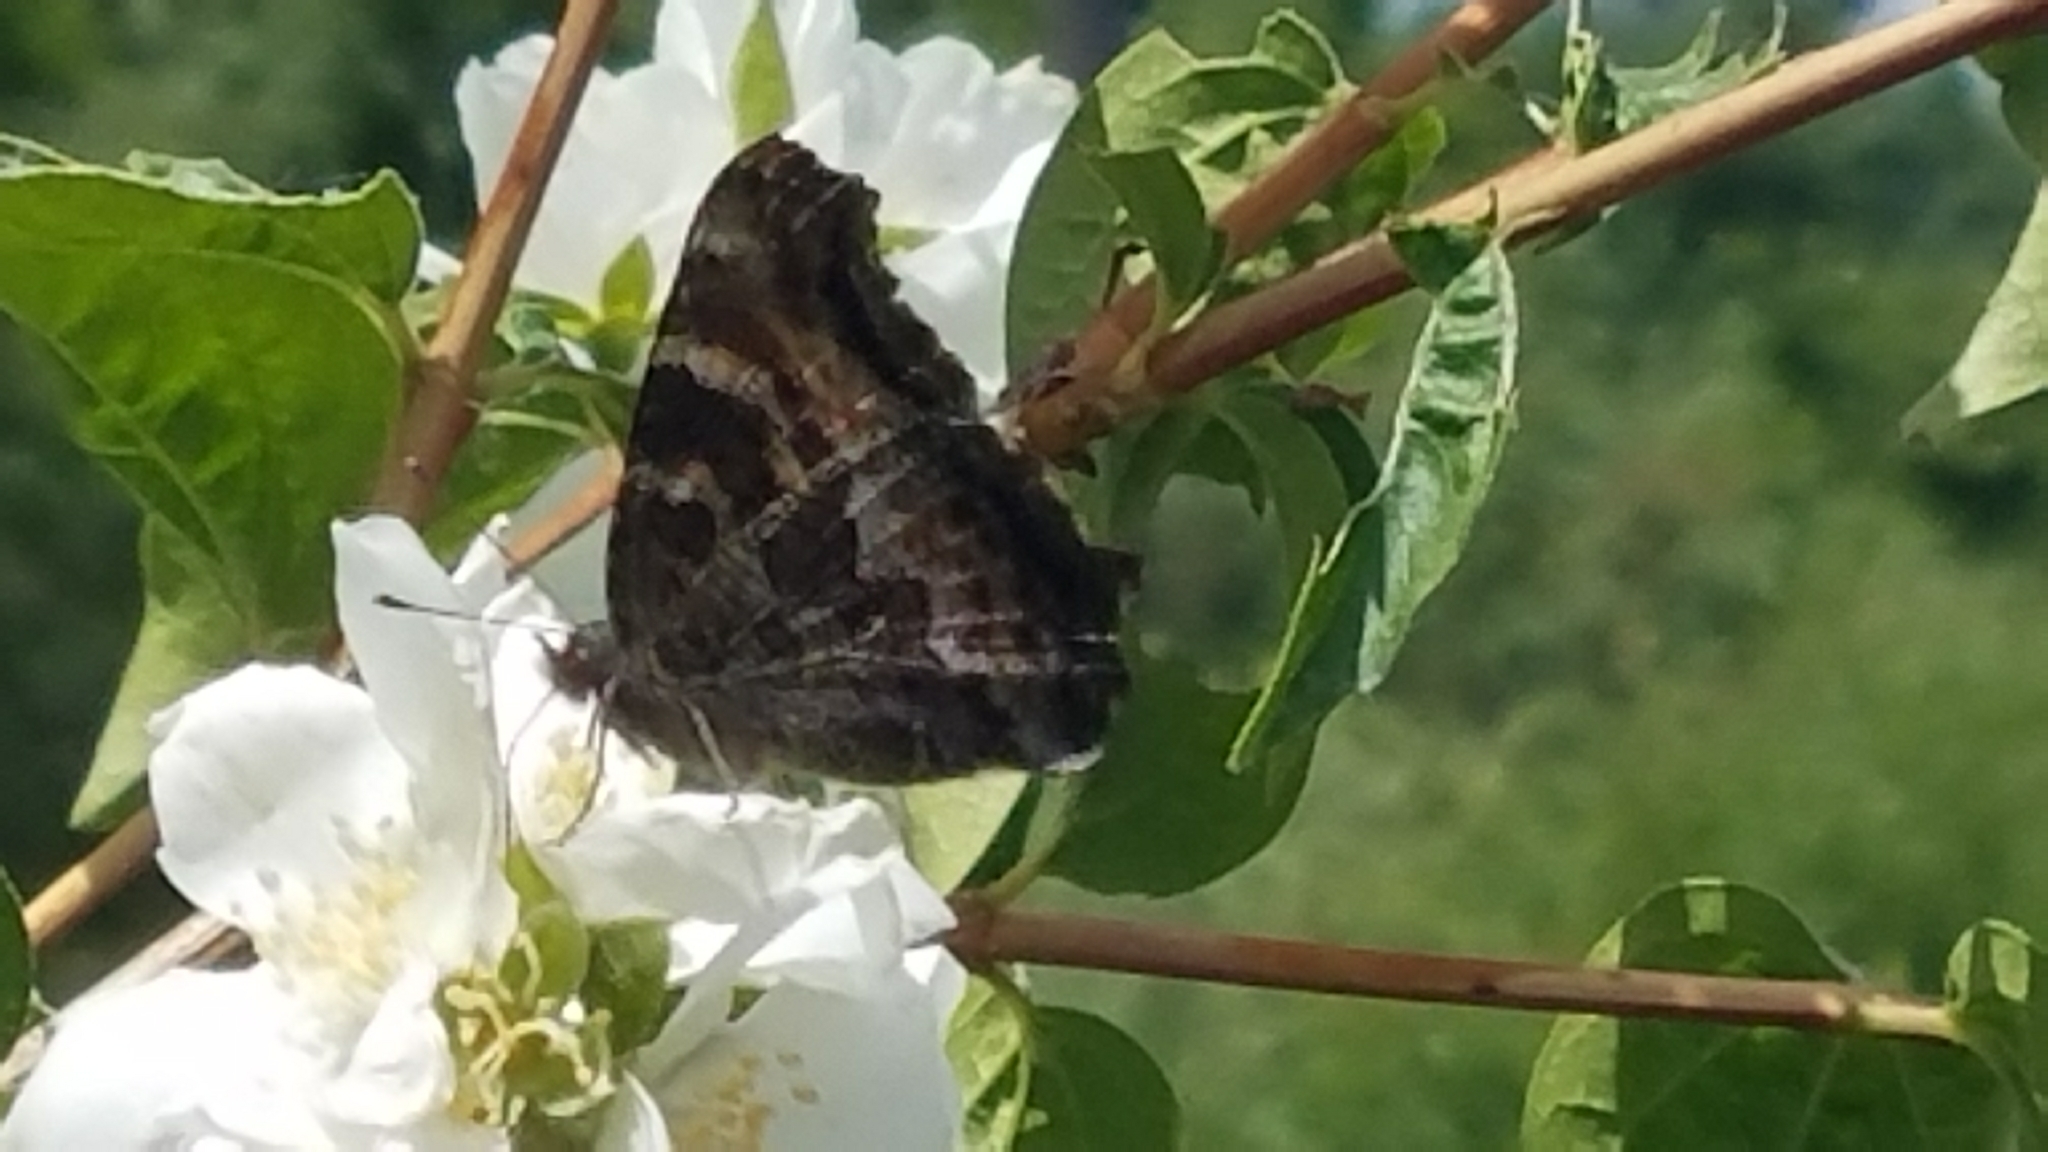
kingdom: Animalia
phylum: Arthropoda
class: Insecta
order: Lepidoptera
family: Nymphalidae
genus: Nymphalis
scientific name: Nymphalis californica
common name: California tortoiseshell
